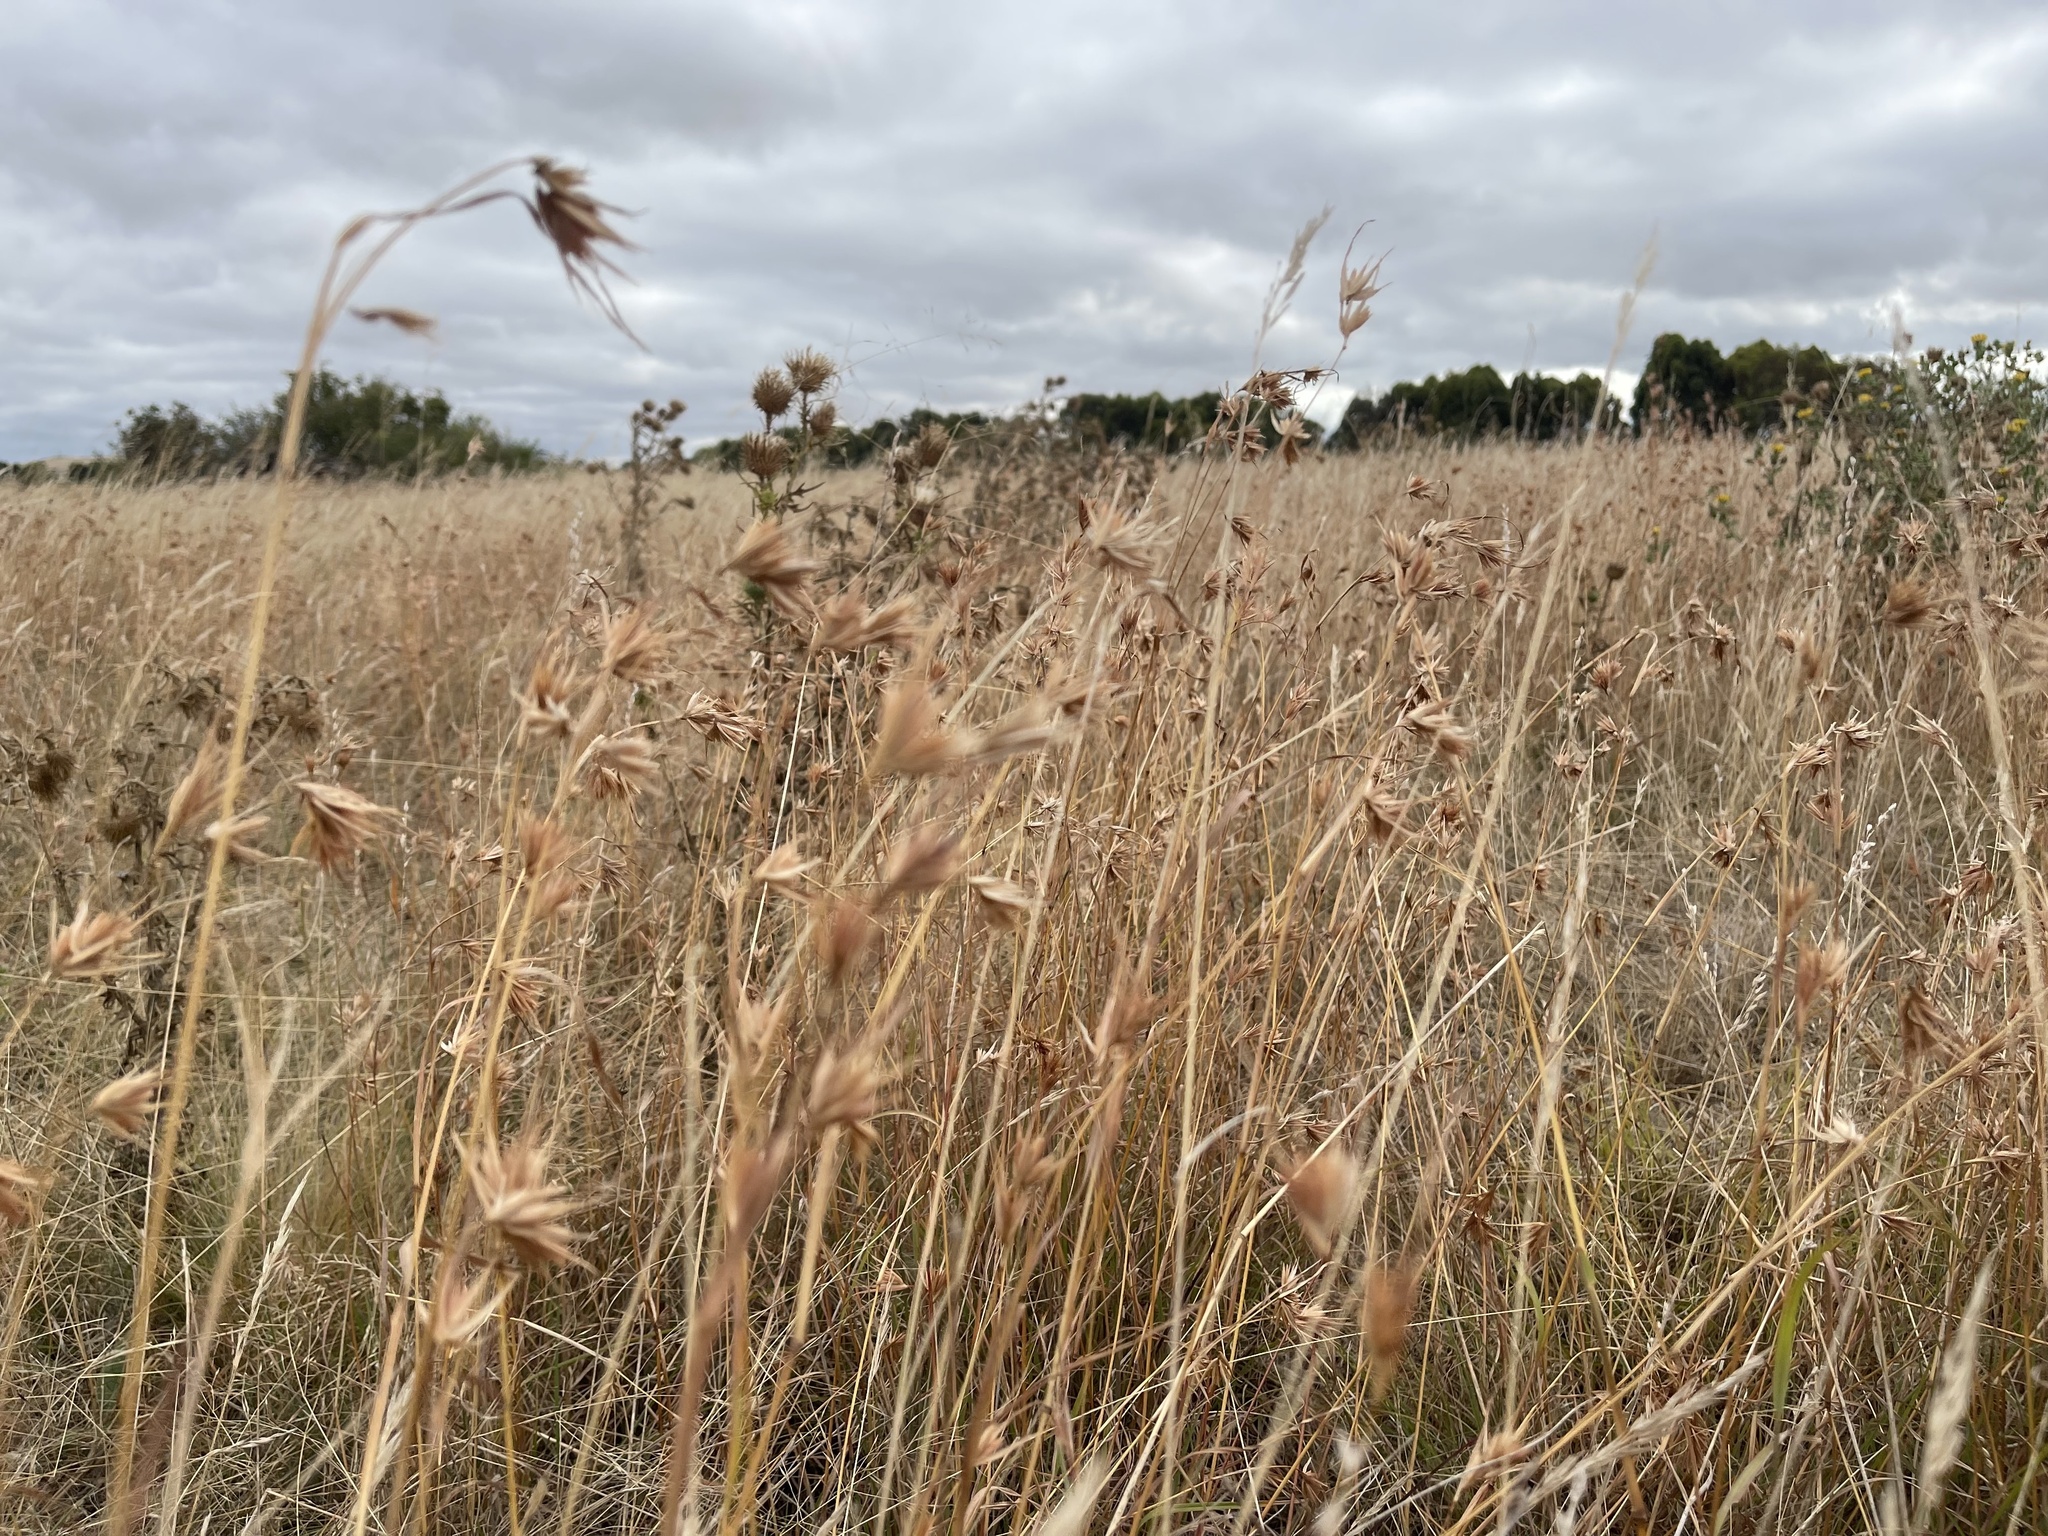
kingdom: Plantae
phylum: Tracheophyta
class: Liliopsida
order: Poales
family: Poaceae
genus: Themeda
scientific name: Themeda triandra
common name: Kangaroo grass
